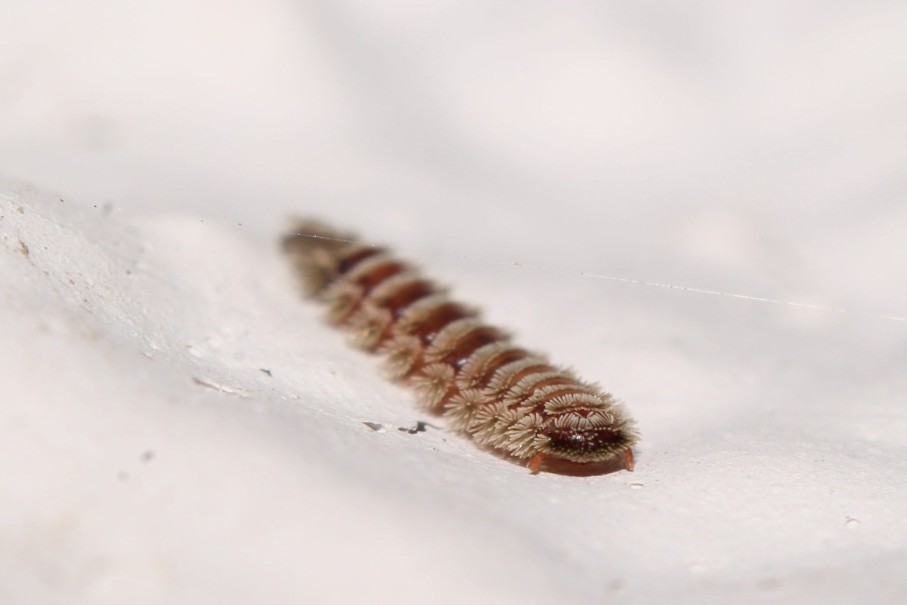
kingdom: Animalia
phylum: Arthropoda
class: Diplopoda
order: Polyxenida
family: Polyxenidae
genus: Polyxenus
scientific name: Polyxenus lagurus
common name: Bristly millipede
